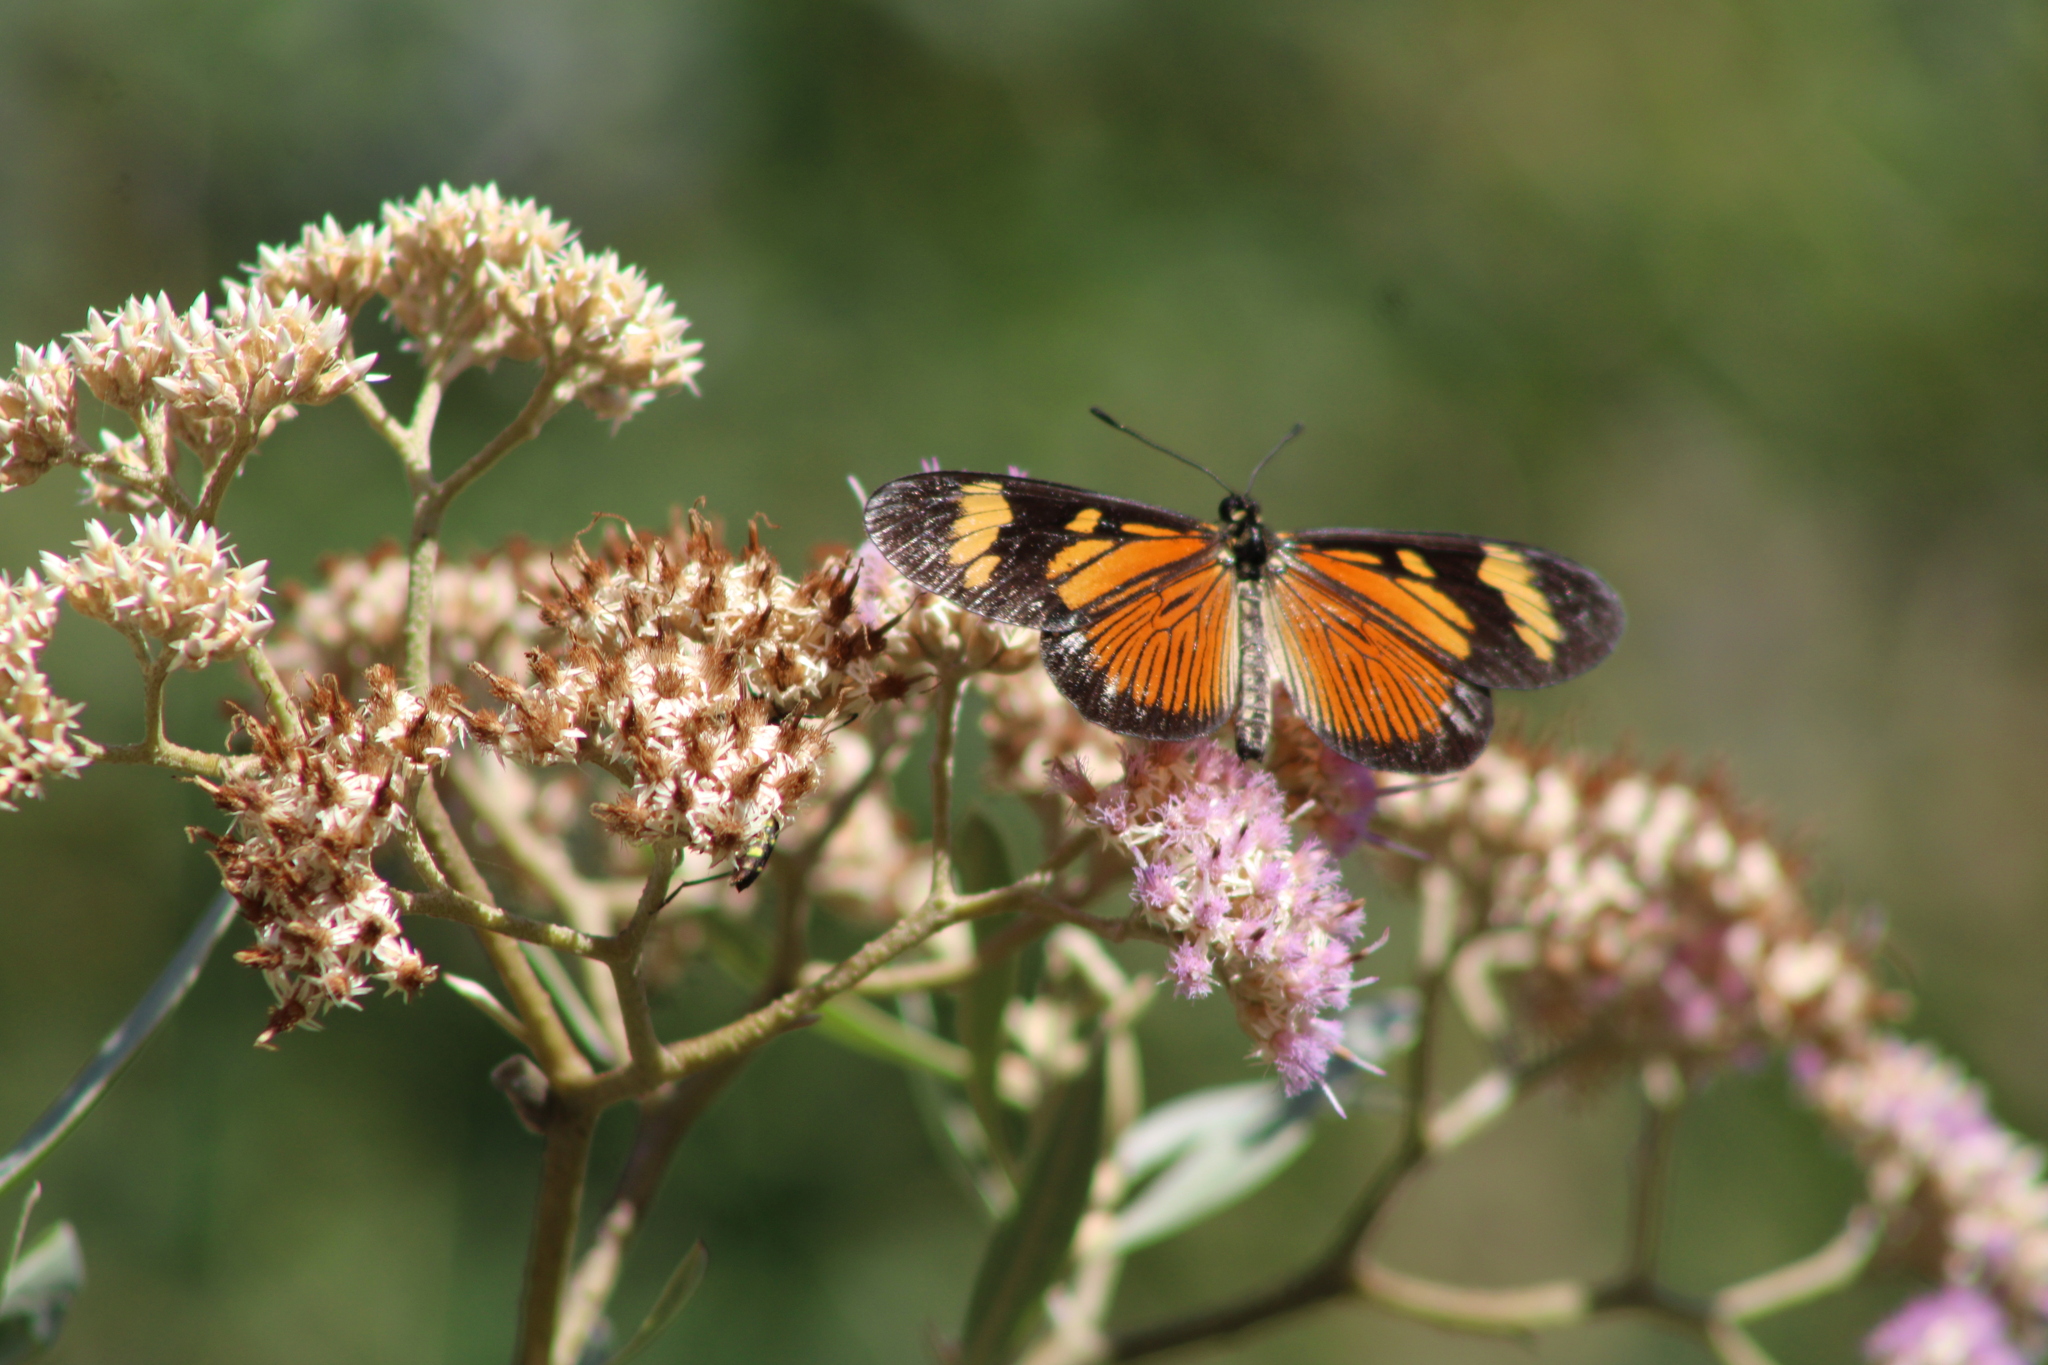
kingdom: Animalia
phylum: Arthropoda
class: Insecta
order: Lepidoptera
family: Nymphalidae
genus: Actinote
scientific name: Actinote pellenea
